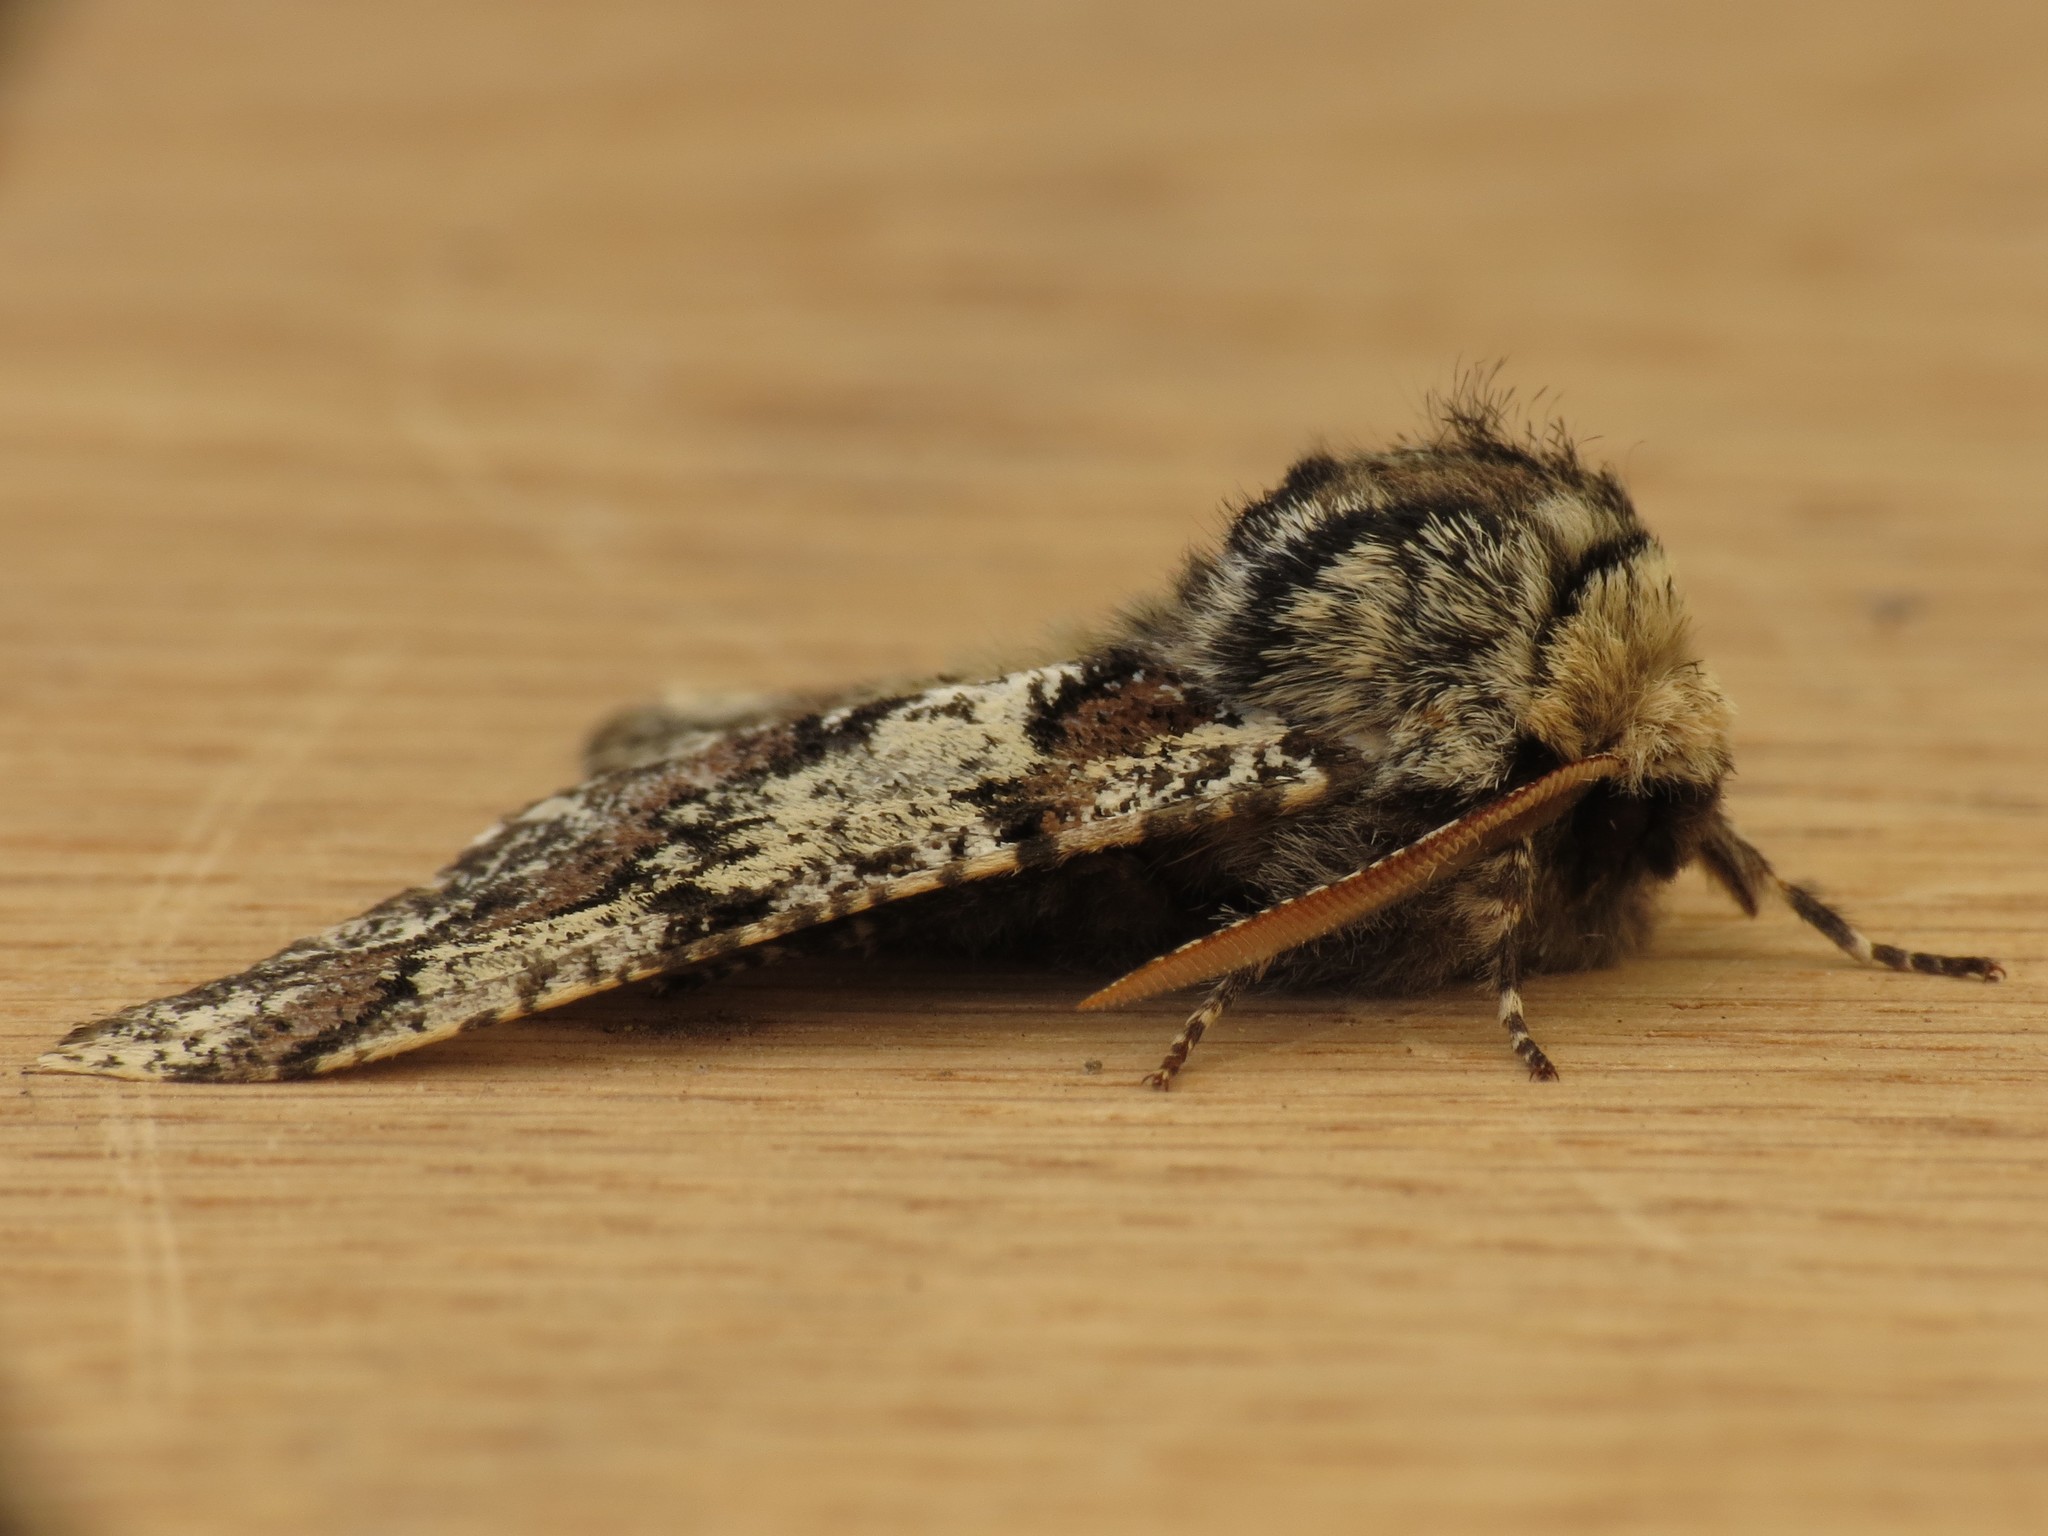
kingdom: Animalia
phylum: Arthropoda
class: Insecta
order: Lepidoptera
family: Geometridae
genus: Biston
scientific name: Biston strataria
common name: Oak beauty
